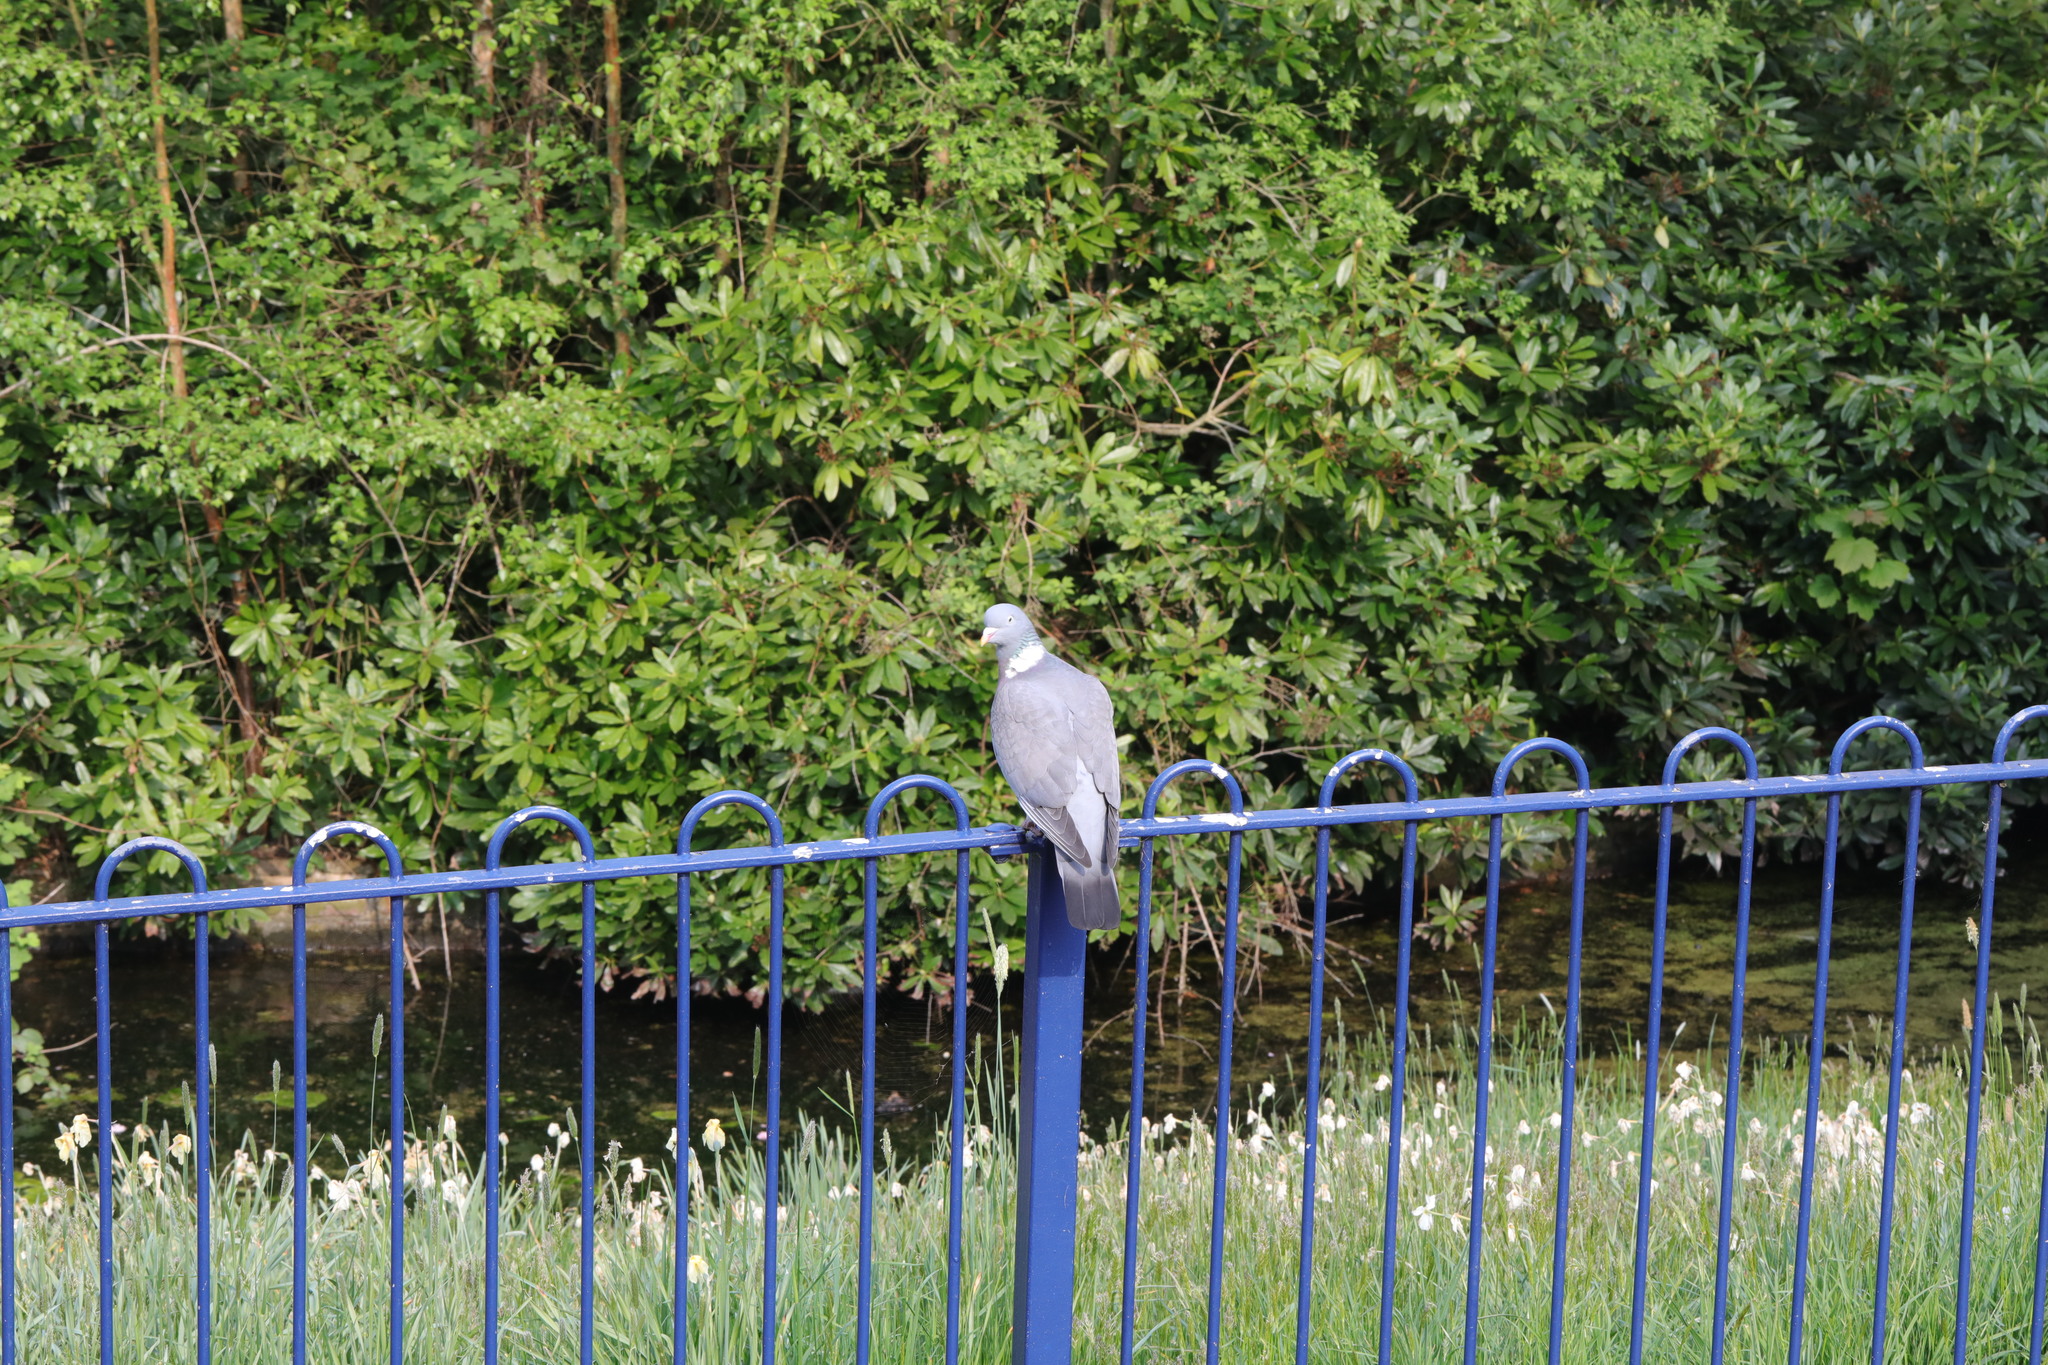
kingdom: Animalia
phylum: Chordata
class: Aves
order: Columbiformes
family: Columbidae
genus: Columba
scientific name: Columba palumbus
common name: Common wood pigeon
